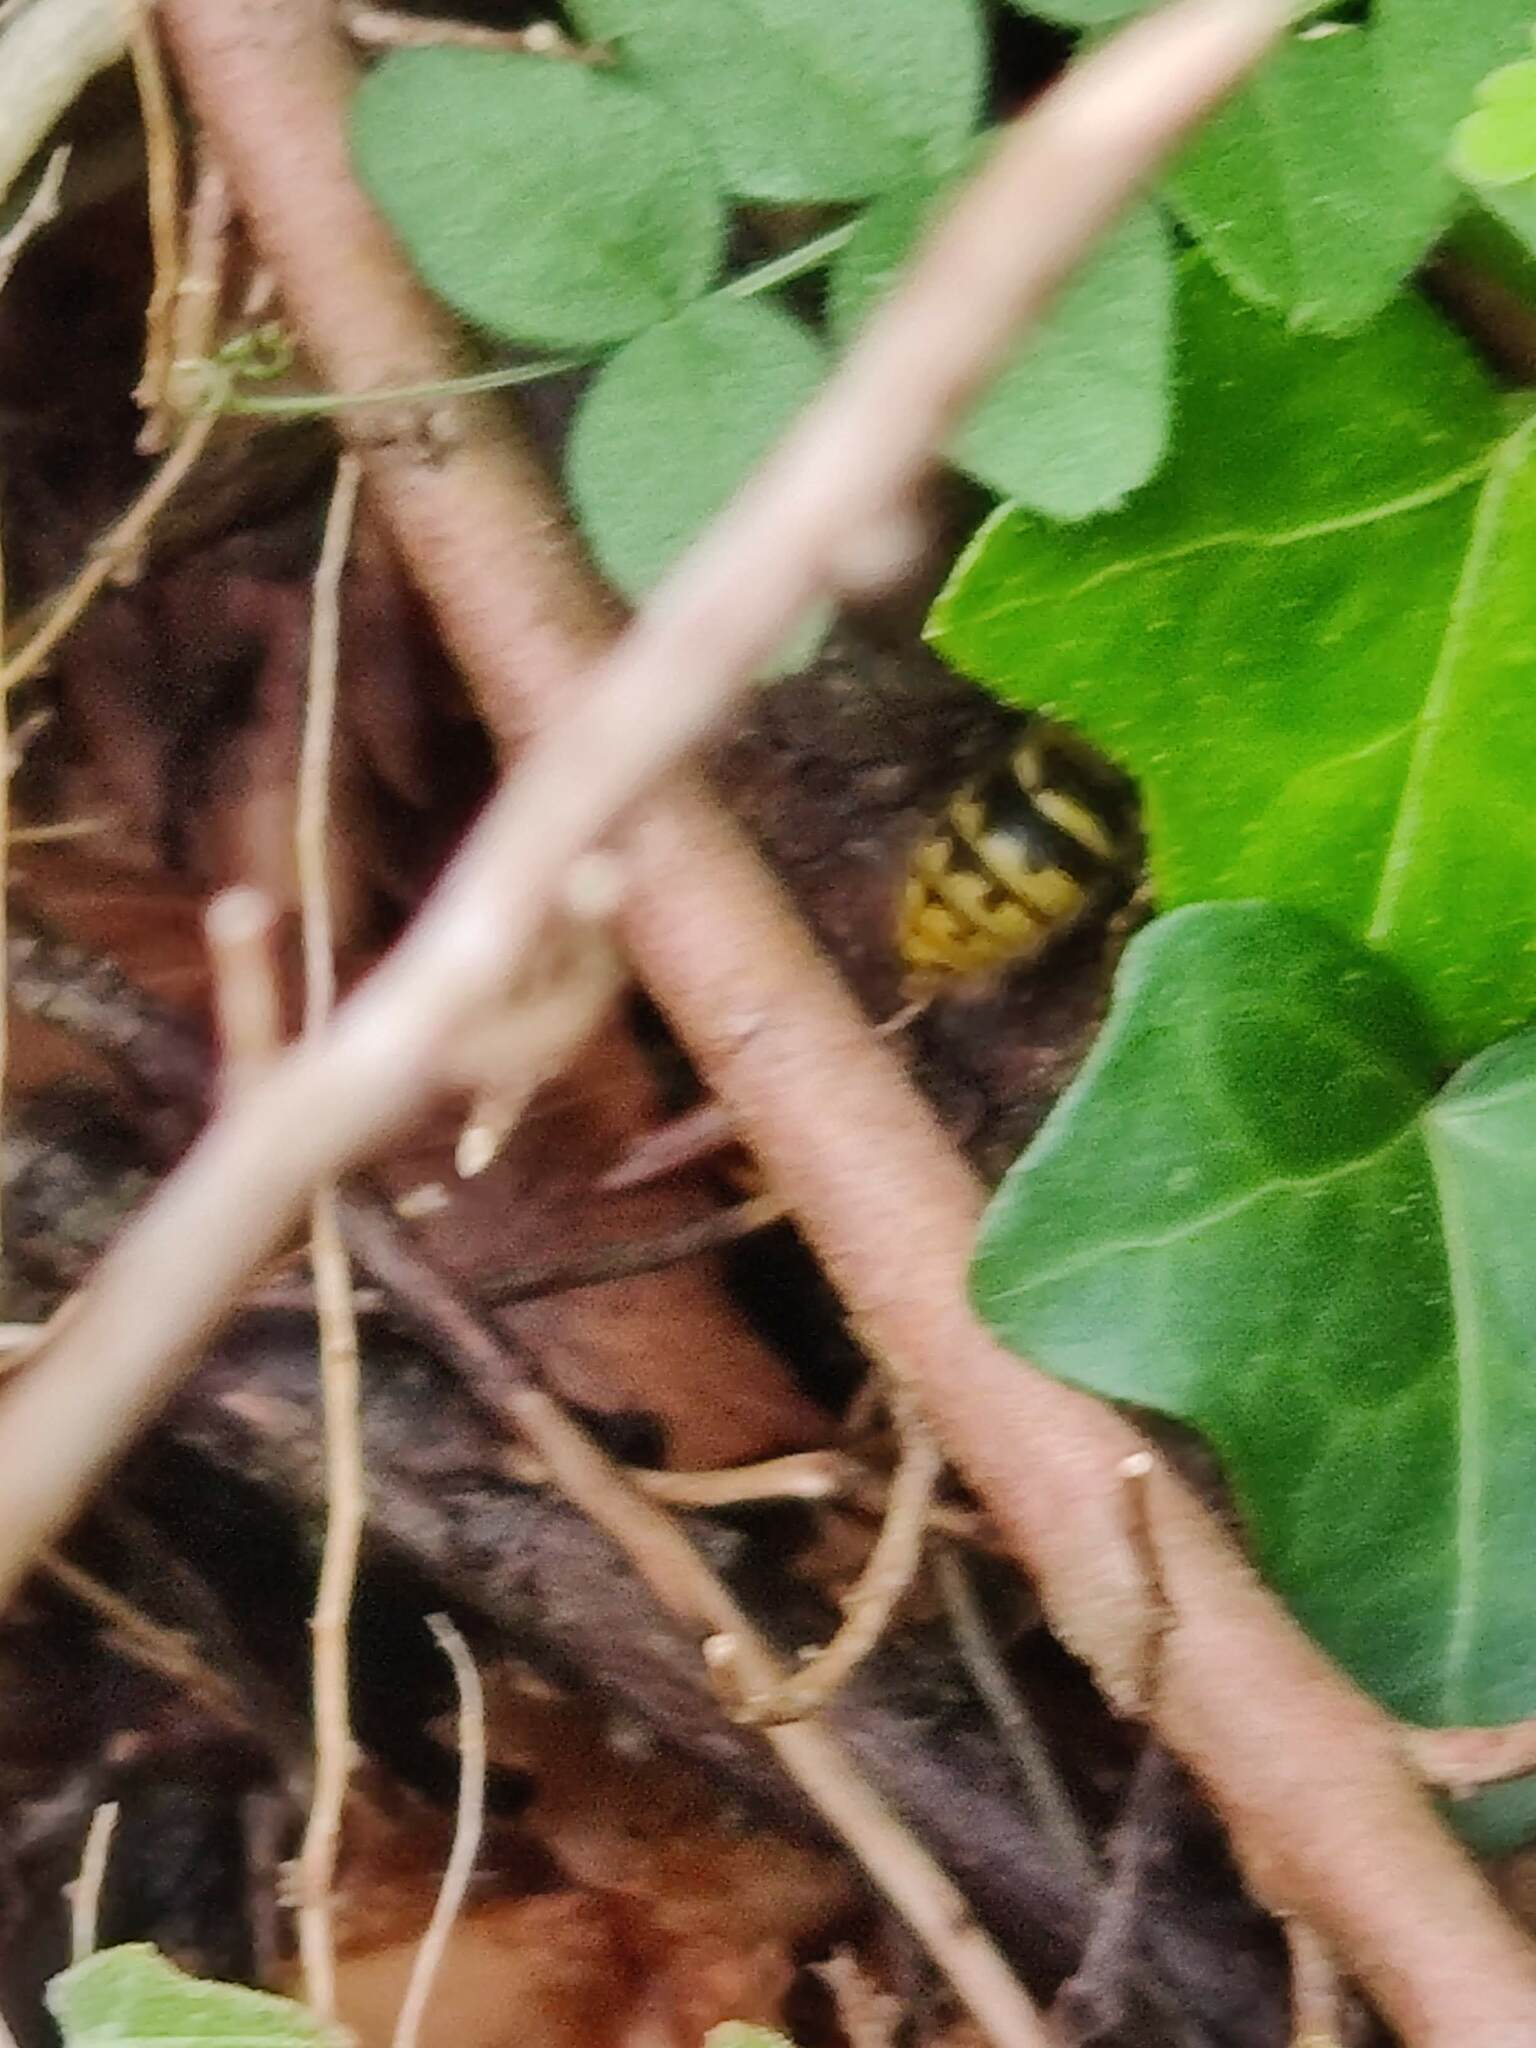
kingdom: Animalia
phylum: Arthropoda
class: Insecta
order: Hymenoptera
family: Vespidae
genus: Vespula
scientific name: Vespula vulgaris
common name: Common wasp
